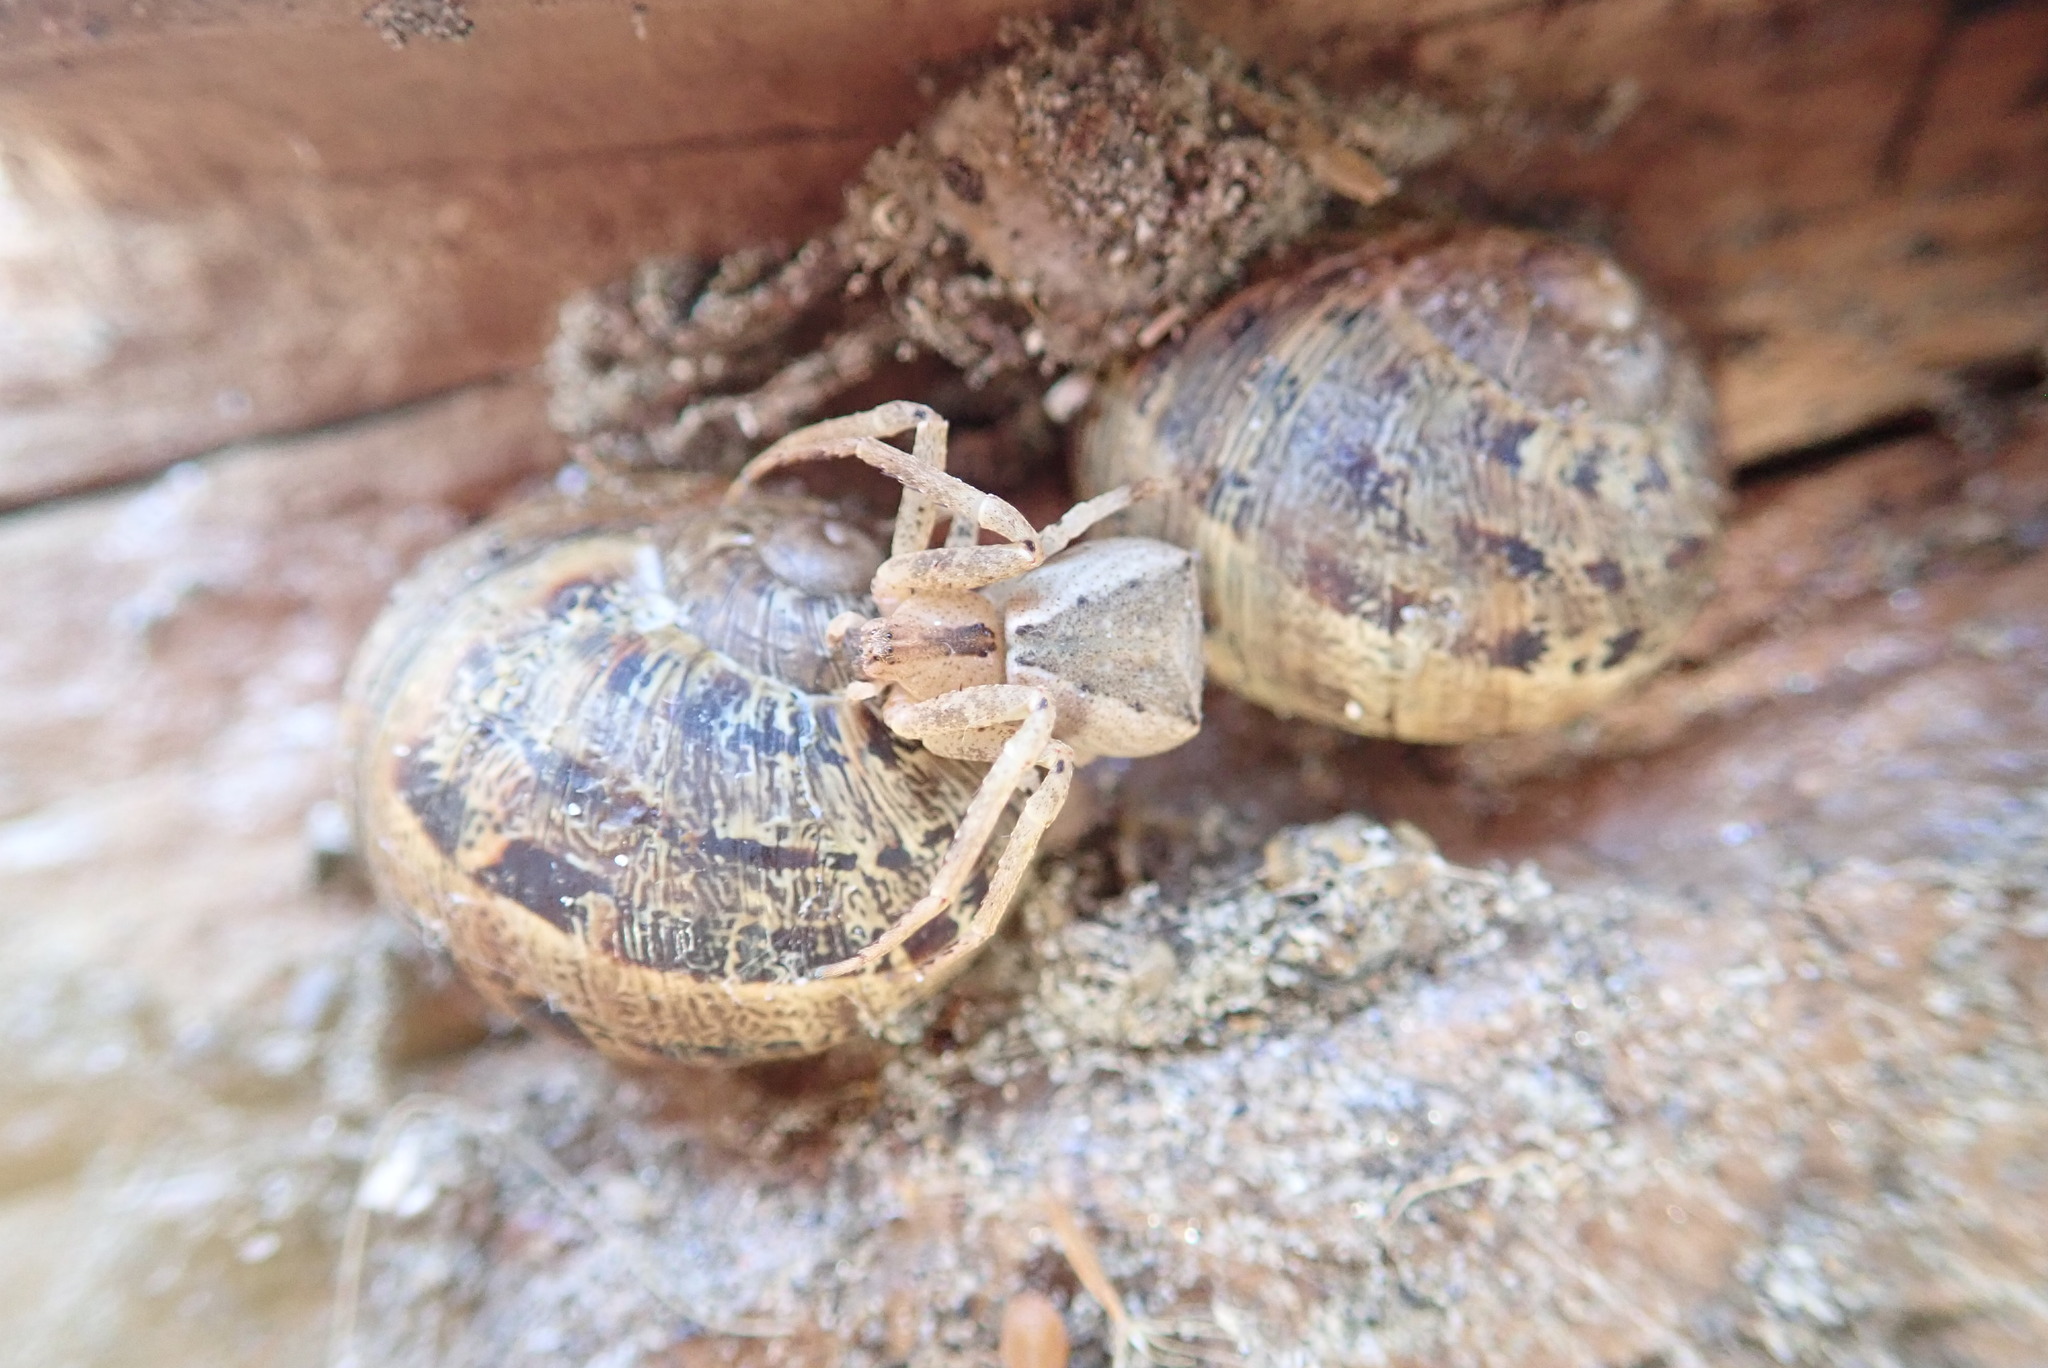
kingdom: Animalia
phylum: Mollusca
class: Gastropoda
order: Stylommatophora
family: Helicidae
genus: Cornu
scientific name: Cornu aspersum
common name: Brown garden snail
